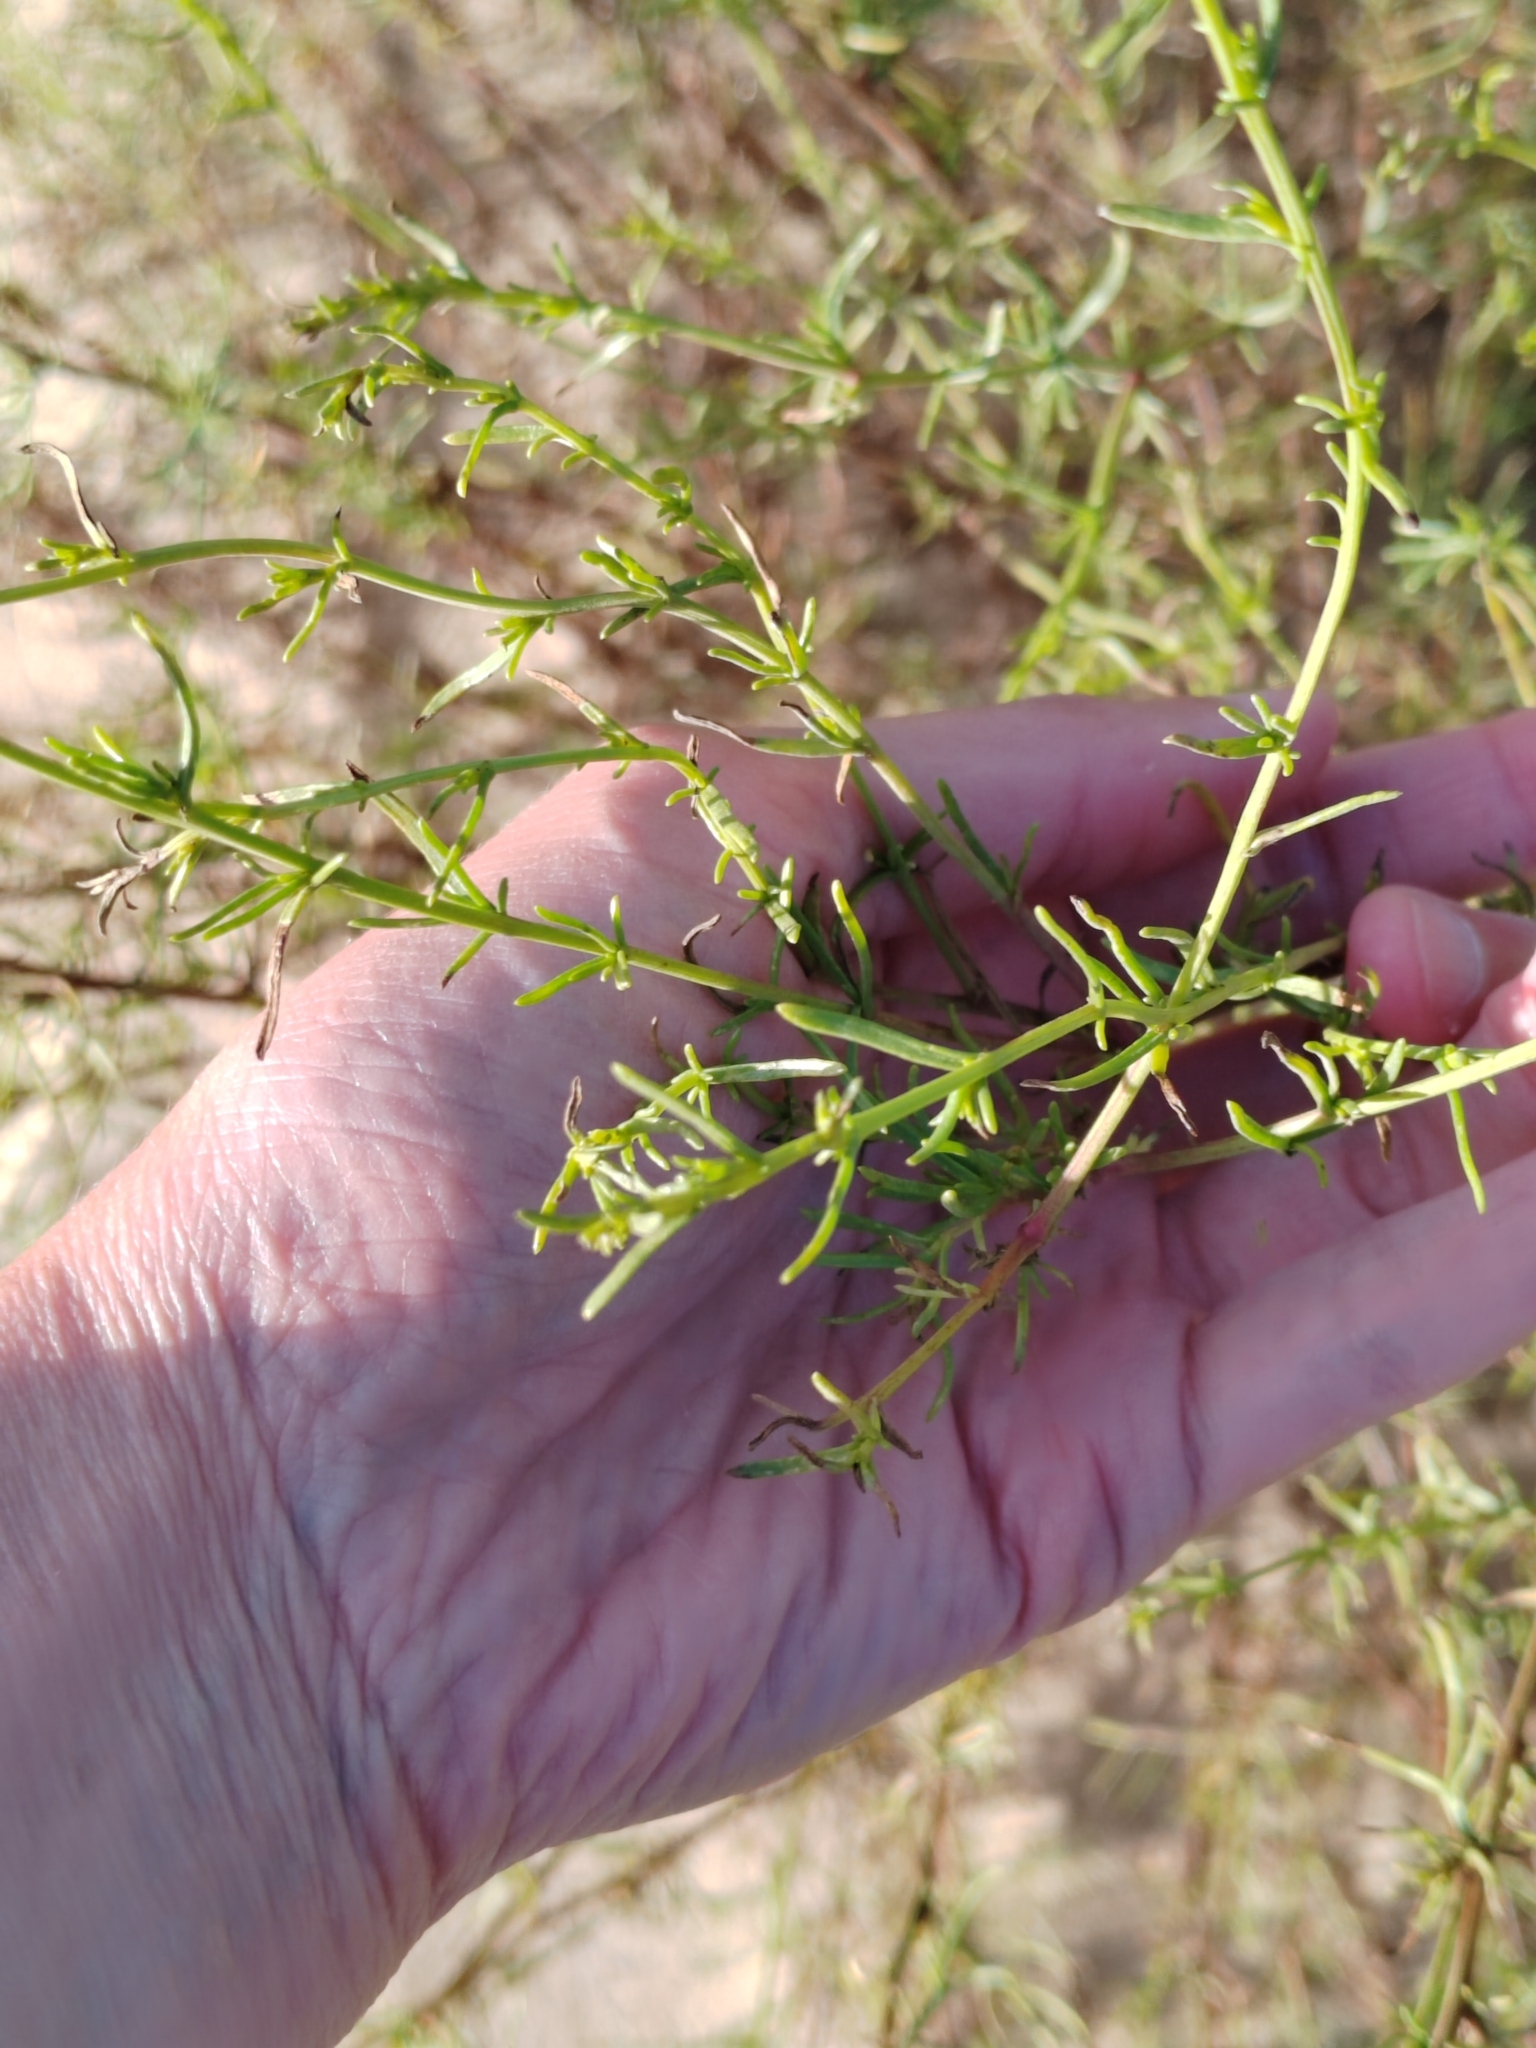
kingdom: Plantae
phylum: Tracheophyta
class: Magnoliopsida
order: Asterales
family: Asteraceae
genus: Artemisia
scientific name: Artemisia arenaria
